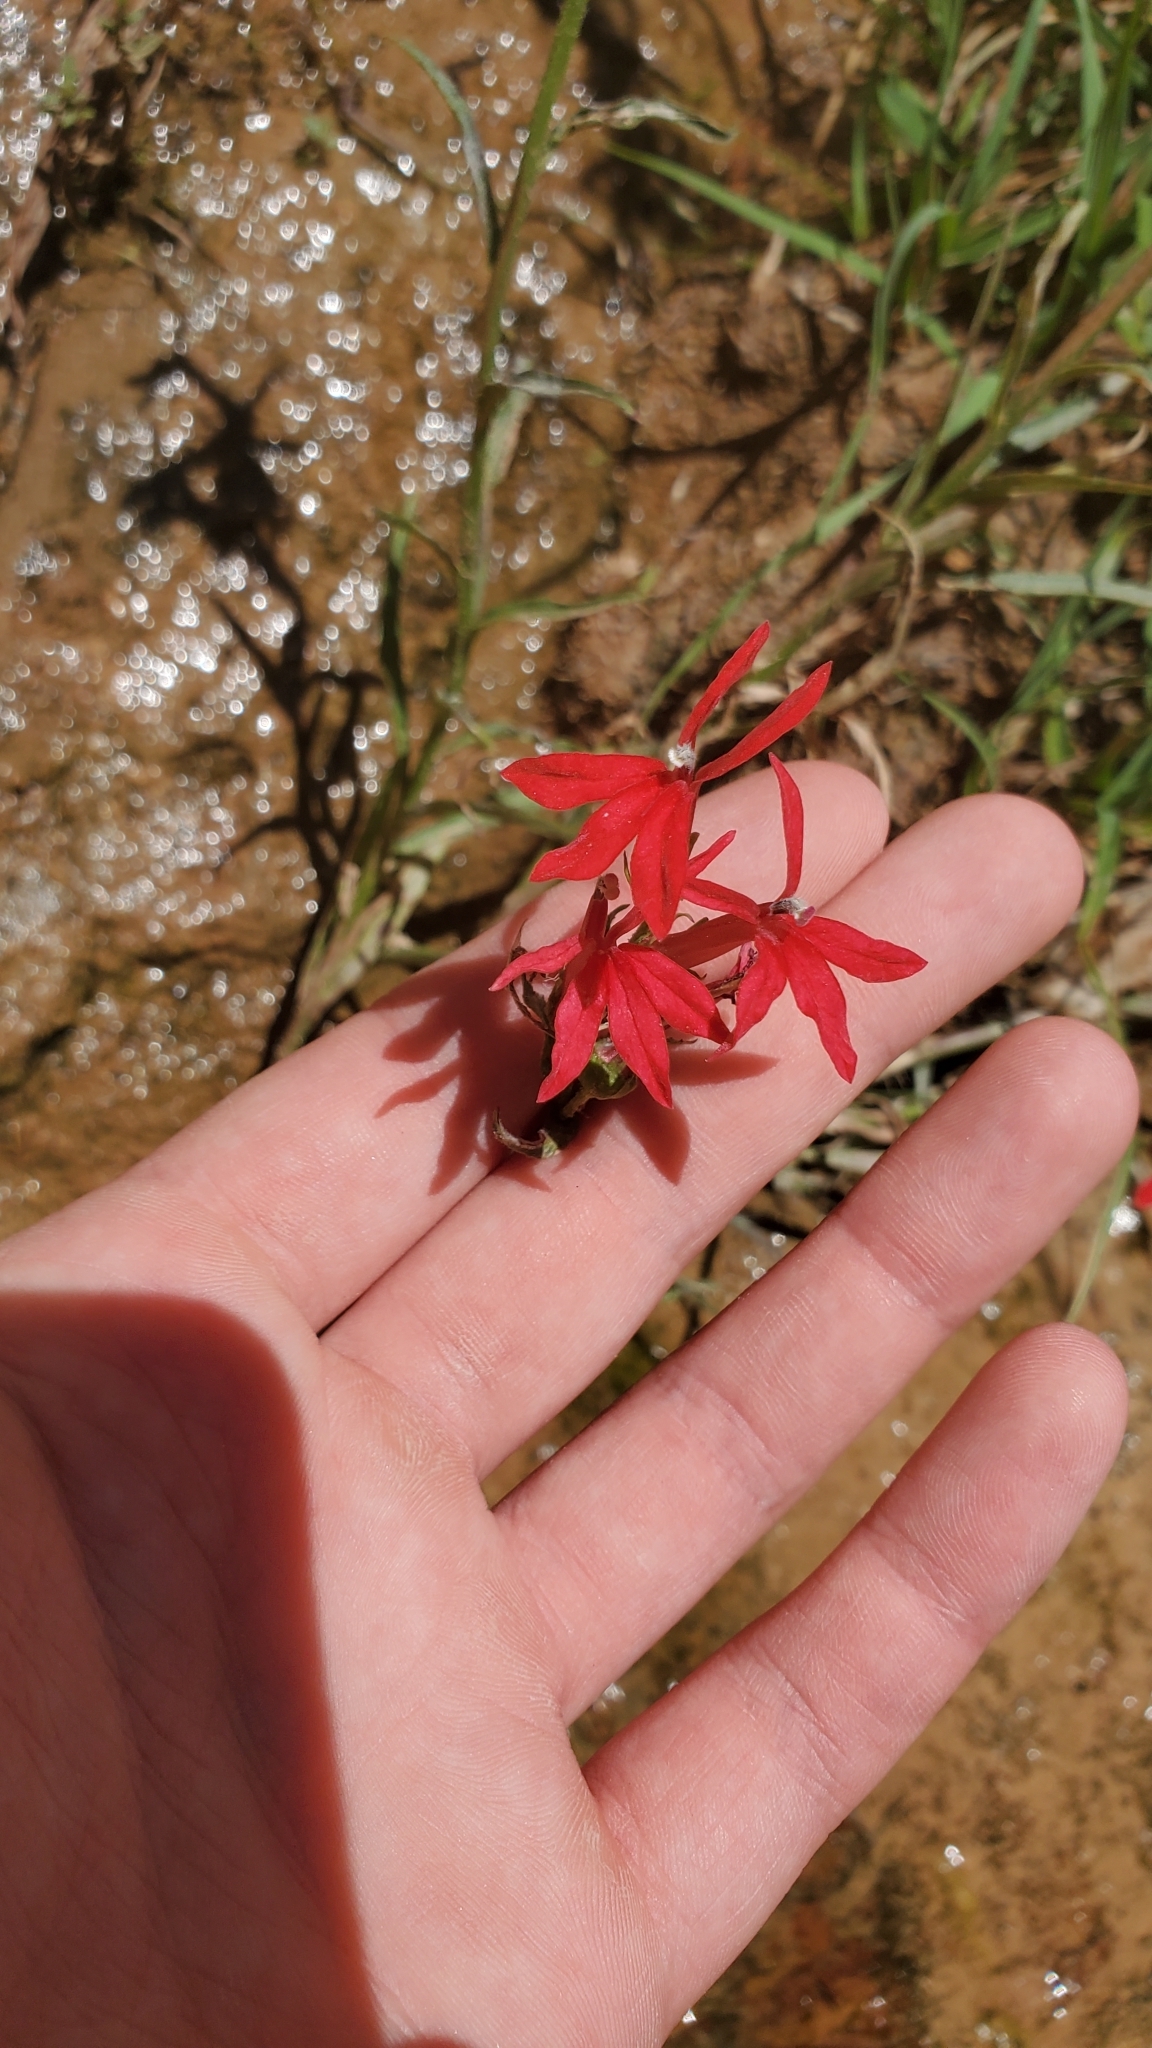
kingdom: Plantae
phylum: Tracheophyta
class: Magnoliopsida
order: Asterales
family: Campanulaceae
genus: Lobelia
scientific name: Lobelia cardinalis
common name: Cardinal flower
